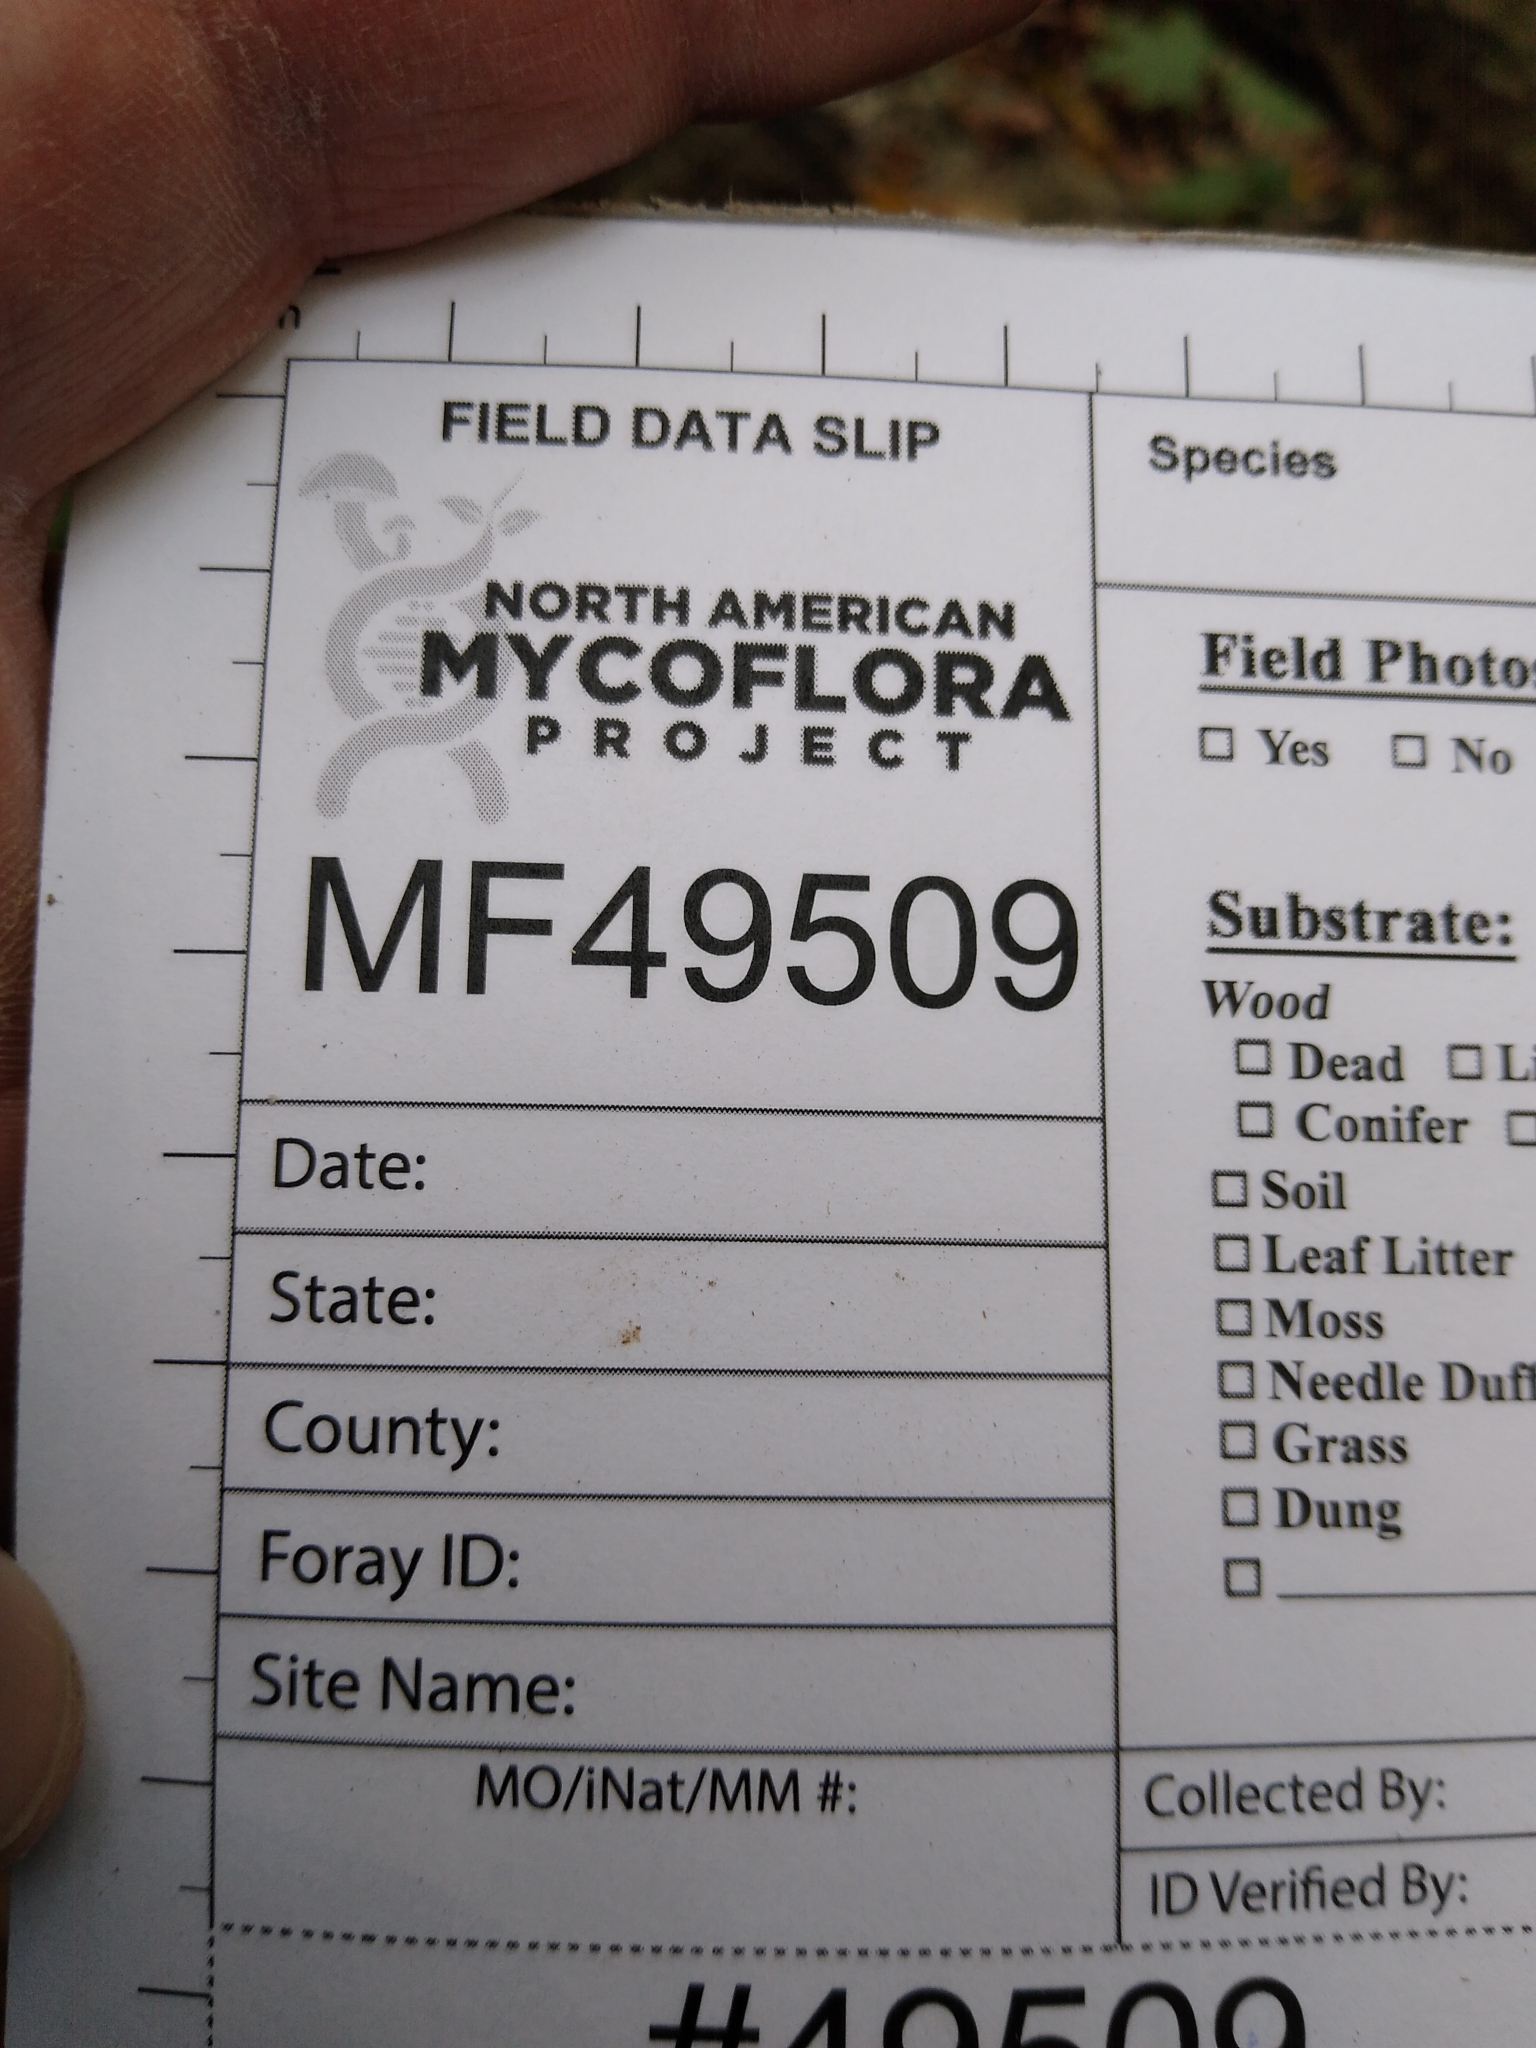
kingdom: Fungi
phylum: Ascomycota
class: Orbiliomycetes
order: Orbiliales
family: Orbiliaceae
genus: Orbilia
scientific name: Orbilia vinosa
